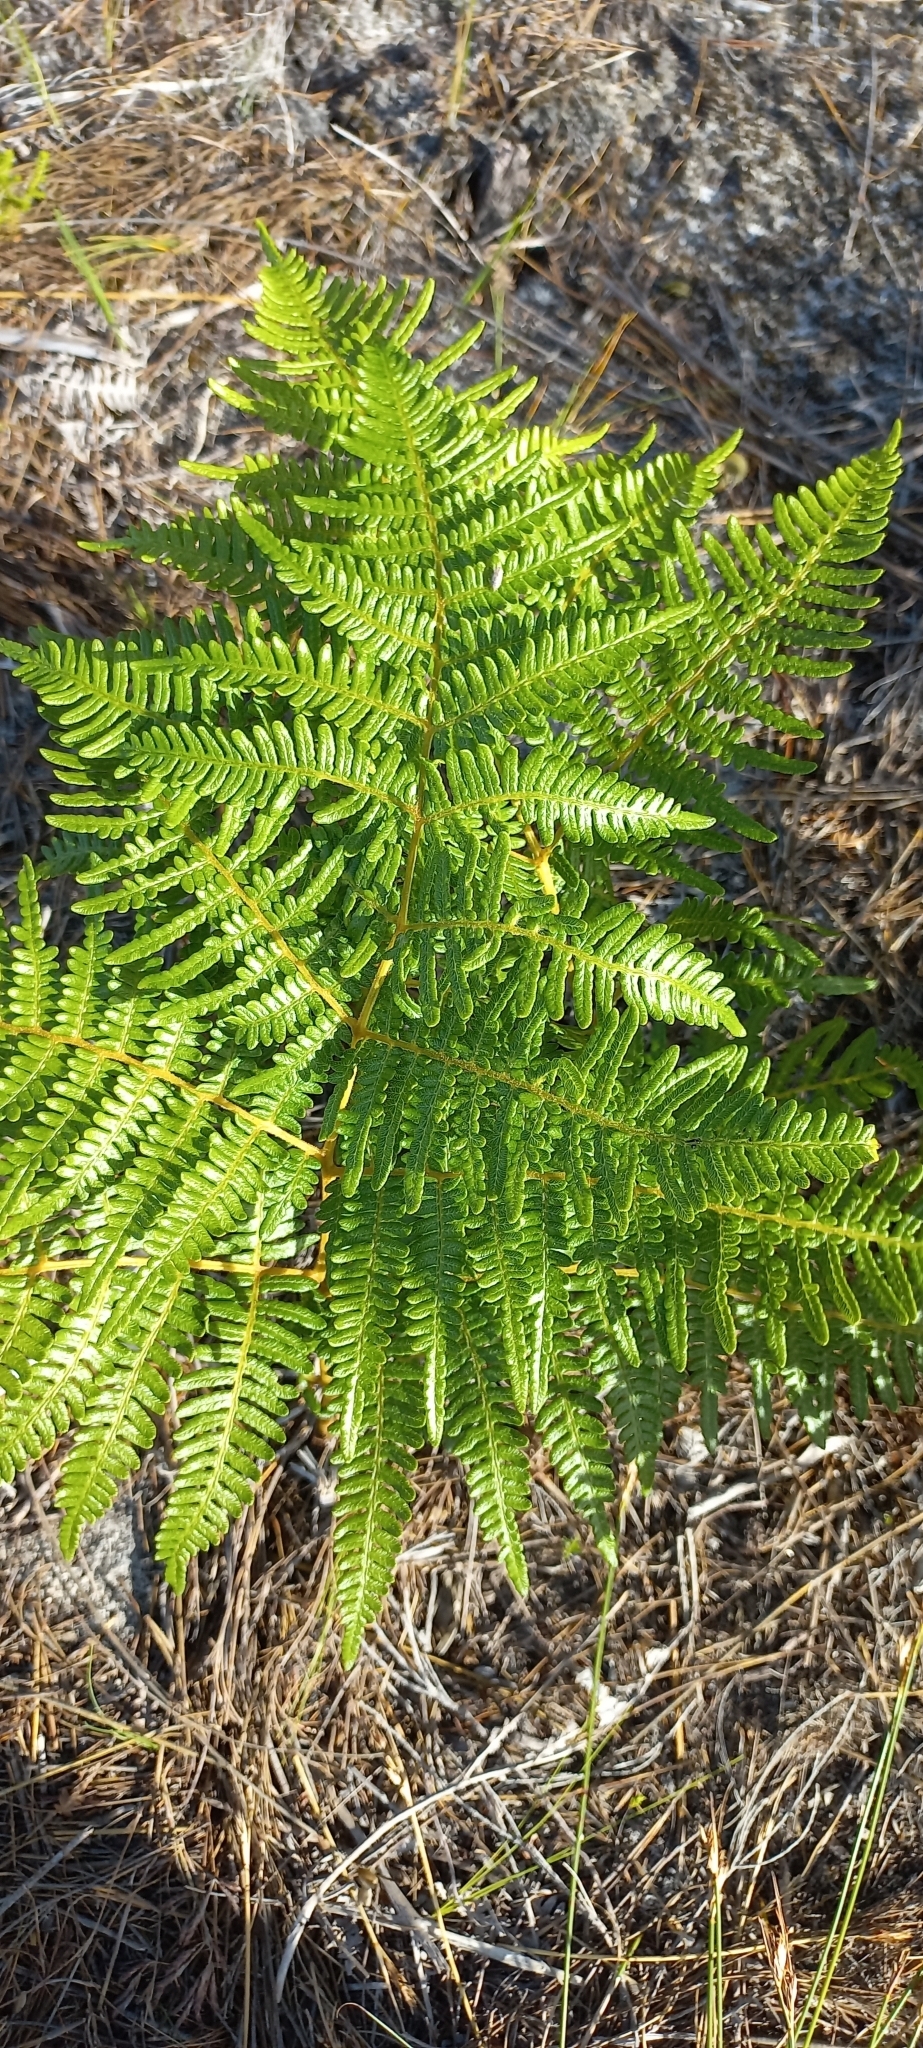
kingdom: Plantae
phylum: Tracheophyta
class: Polypodiopsida
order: Polypodiales
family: Dennstaedtiaceae
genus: Pteridium
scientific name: Pteridium aquilinum
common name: Bracken
